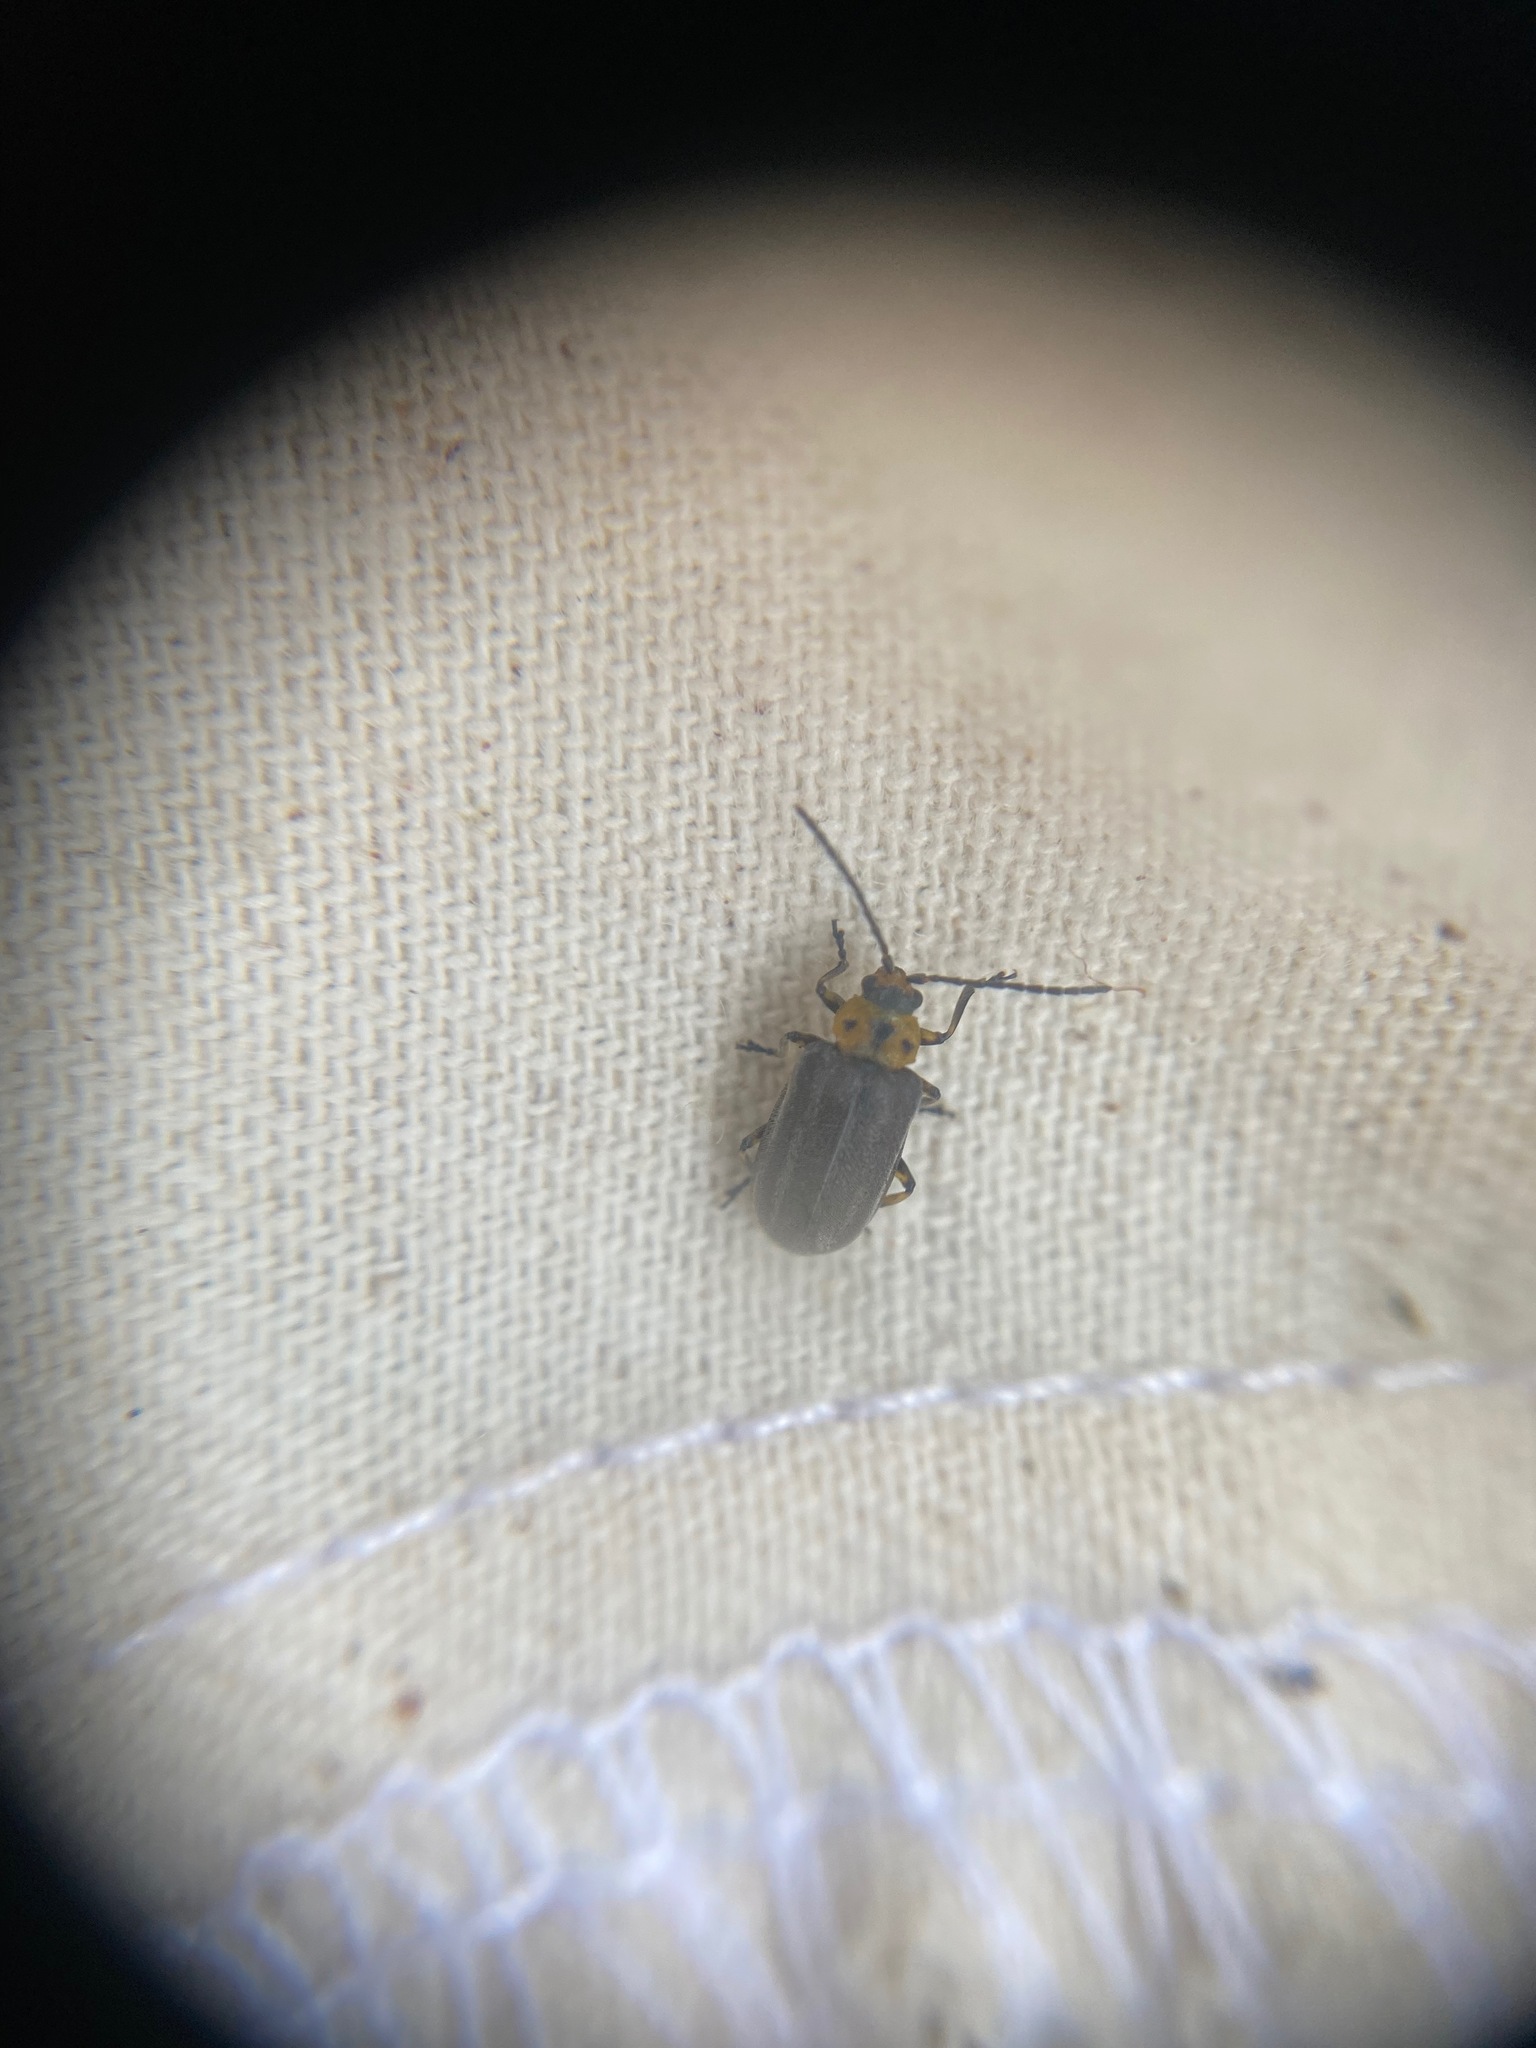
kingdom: Animalia
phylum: Arthropoda
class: Insecta
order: Coleoptera
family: Chrysomelidae
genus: Tricholochmaea
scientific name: Tricholochmaea punctipennis
